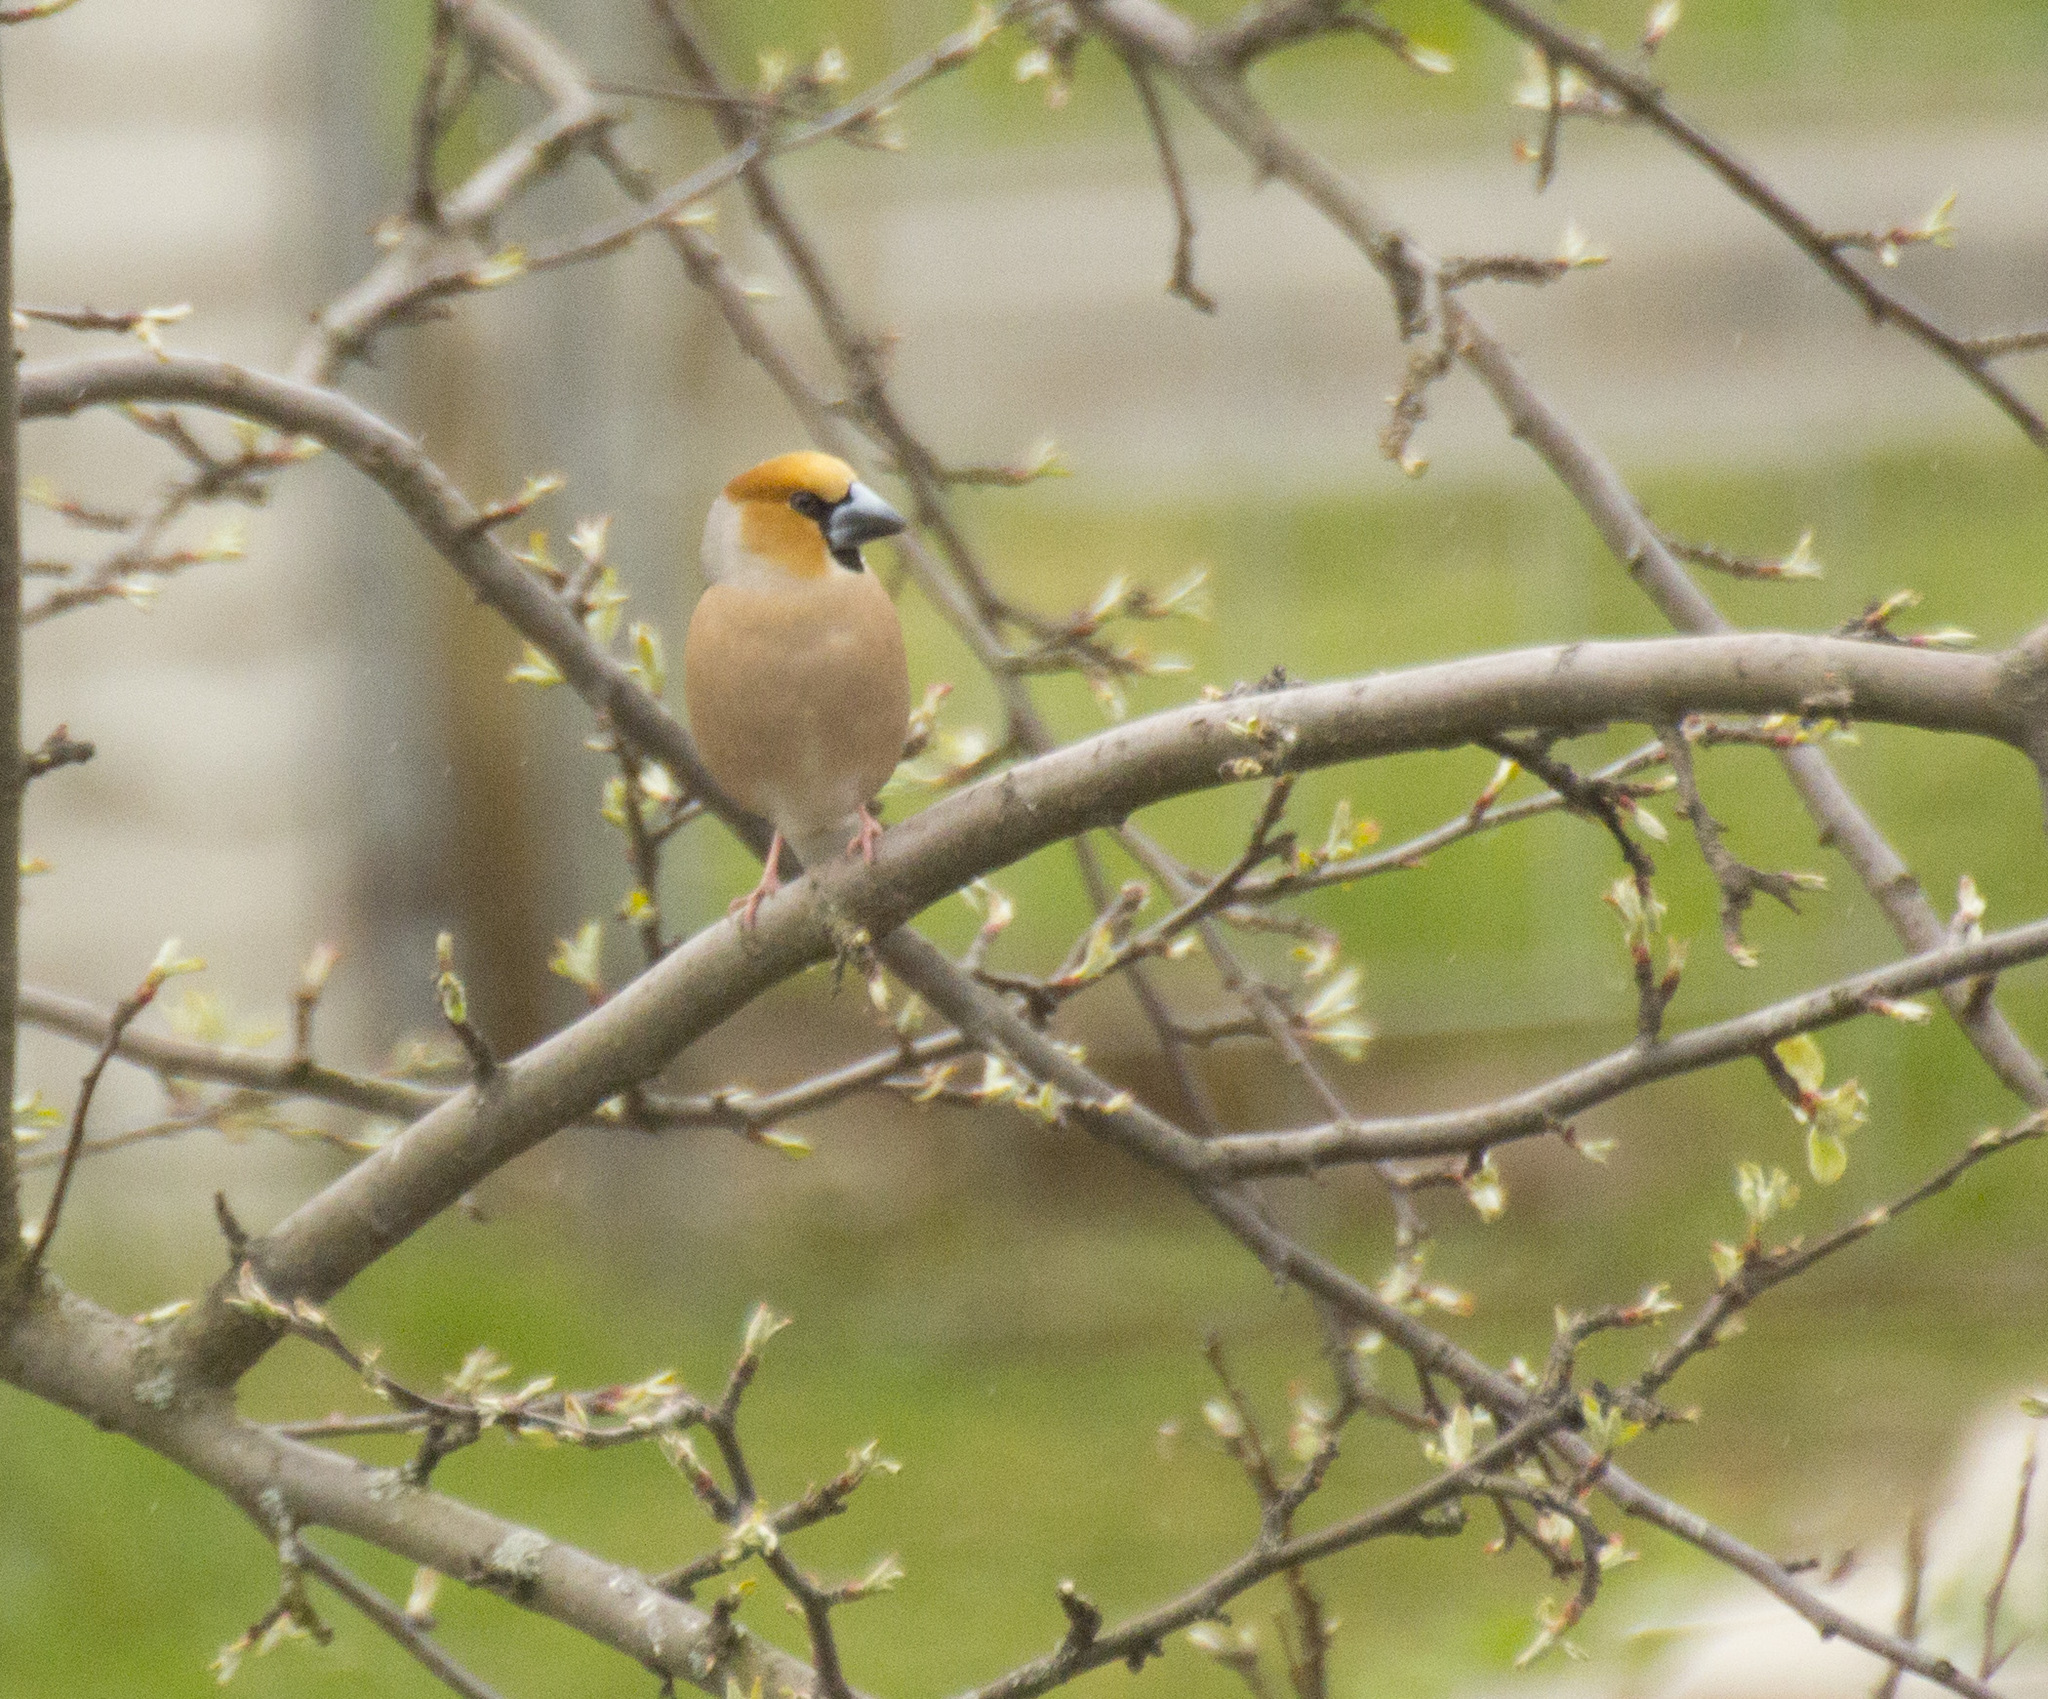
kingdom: Animalia
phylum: Chordata
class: Aves
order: Passeriformes
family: Fringillidae
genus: Coccothraustes
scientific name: Coccothraustes coccothraustes
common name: Hawfinch
